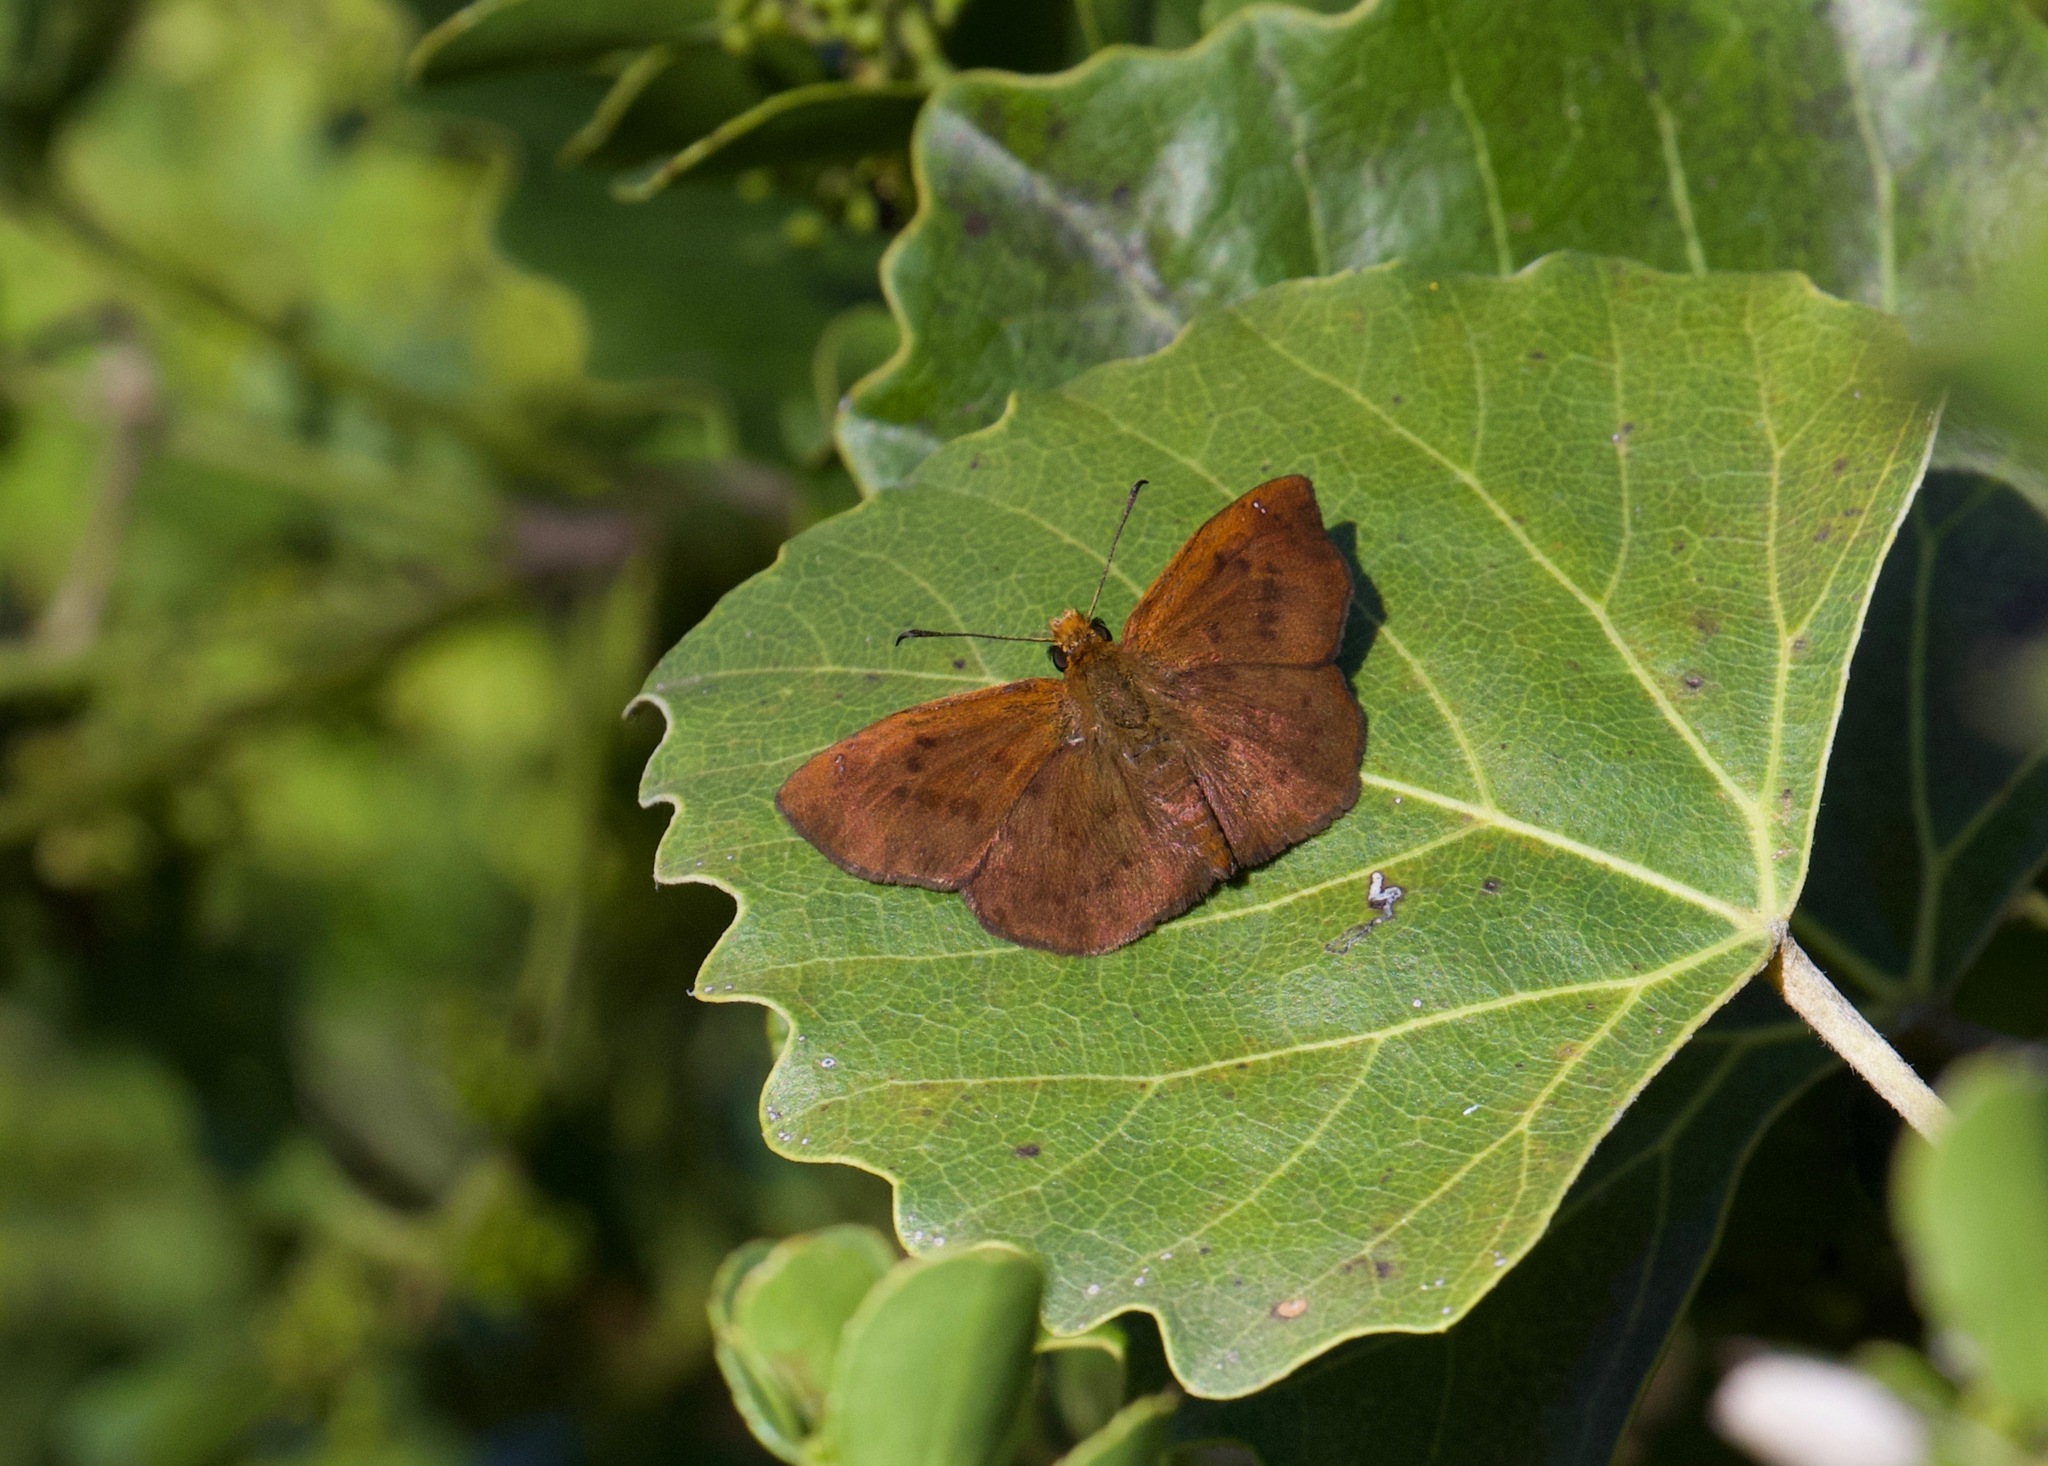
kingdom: Animalia
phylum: Arthropoda
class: Insecta
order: Lepidoptera
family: Hesperiidae
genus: Eagris
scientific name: Eagris nottoana
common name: Rufous-winged flat
